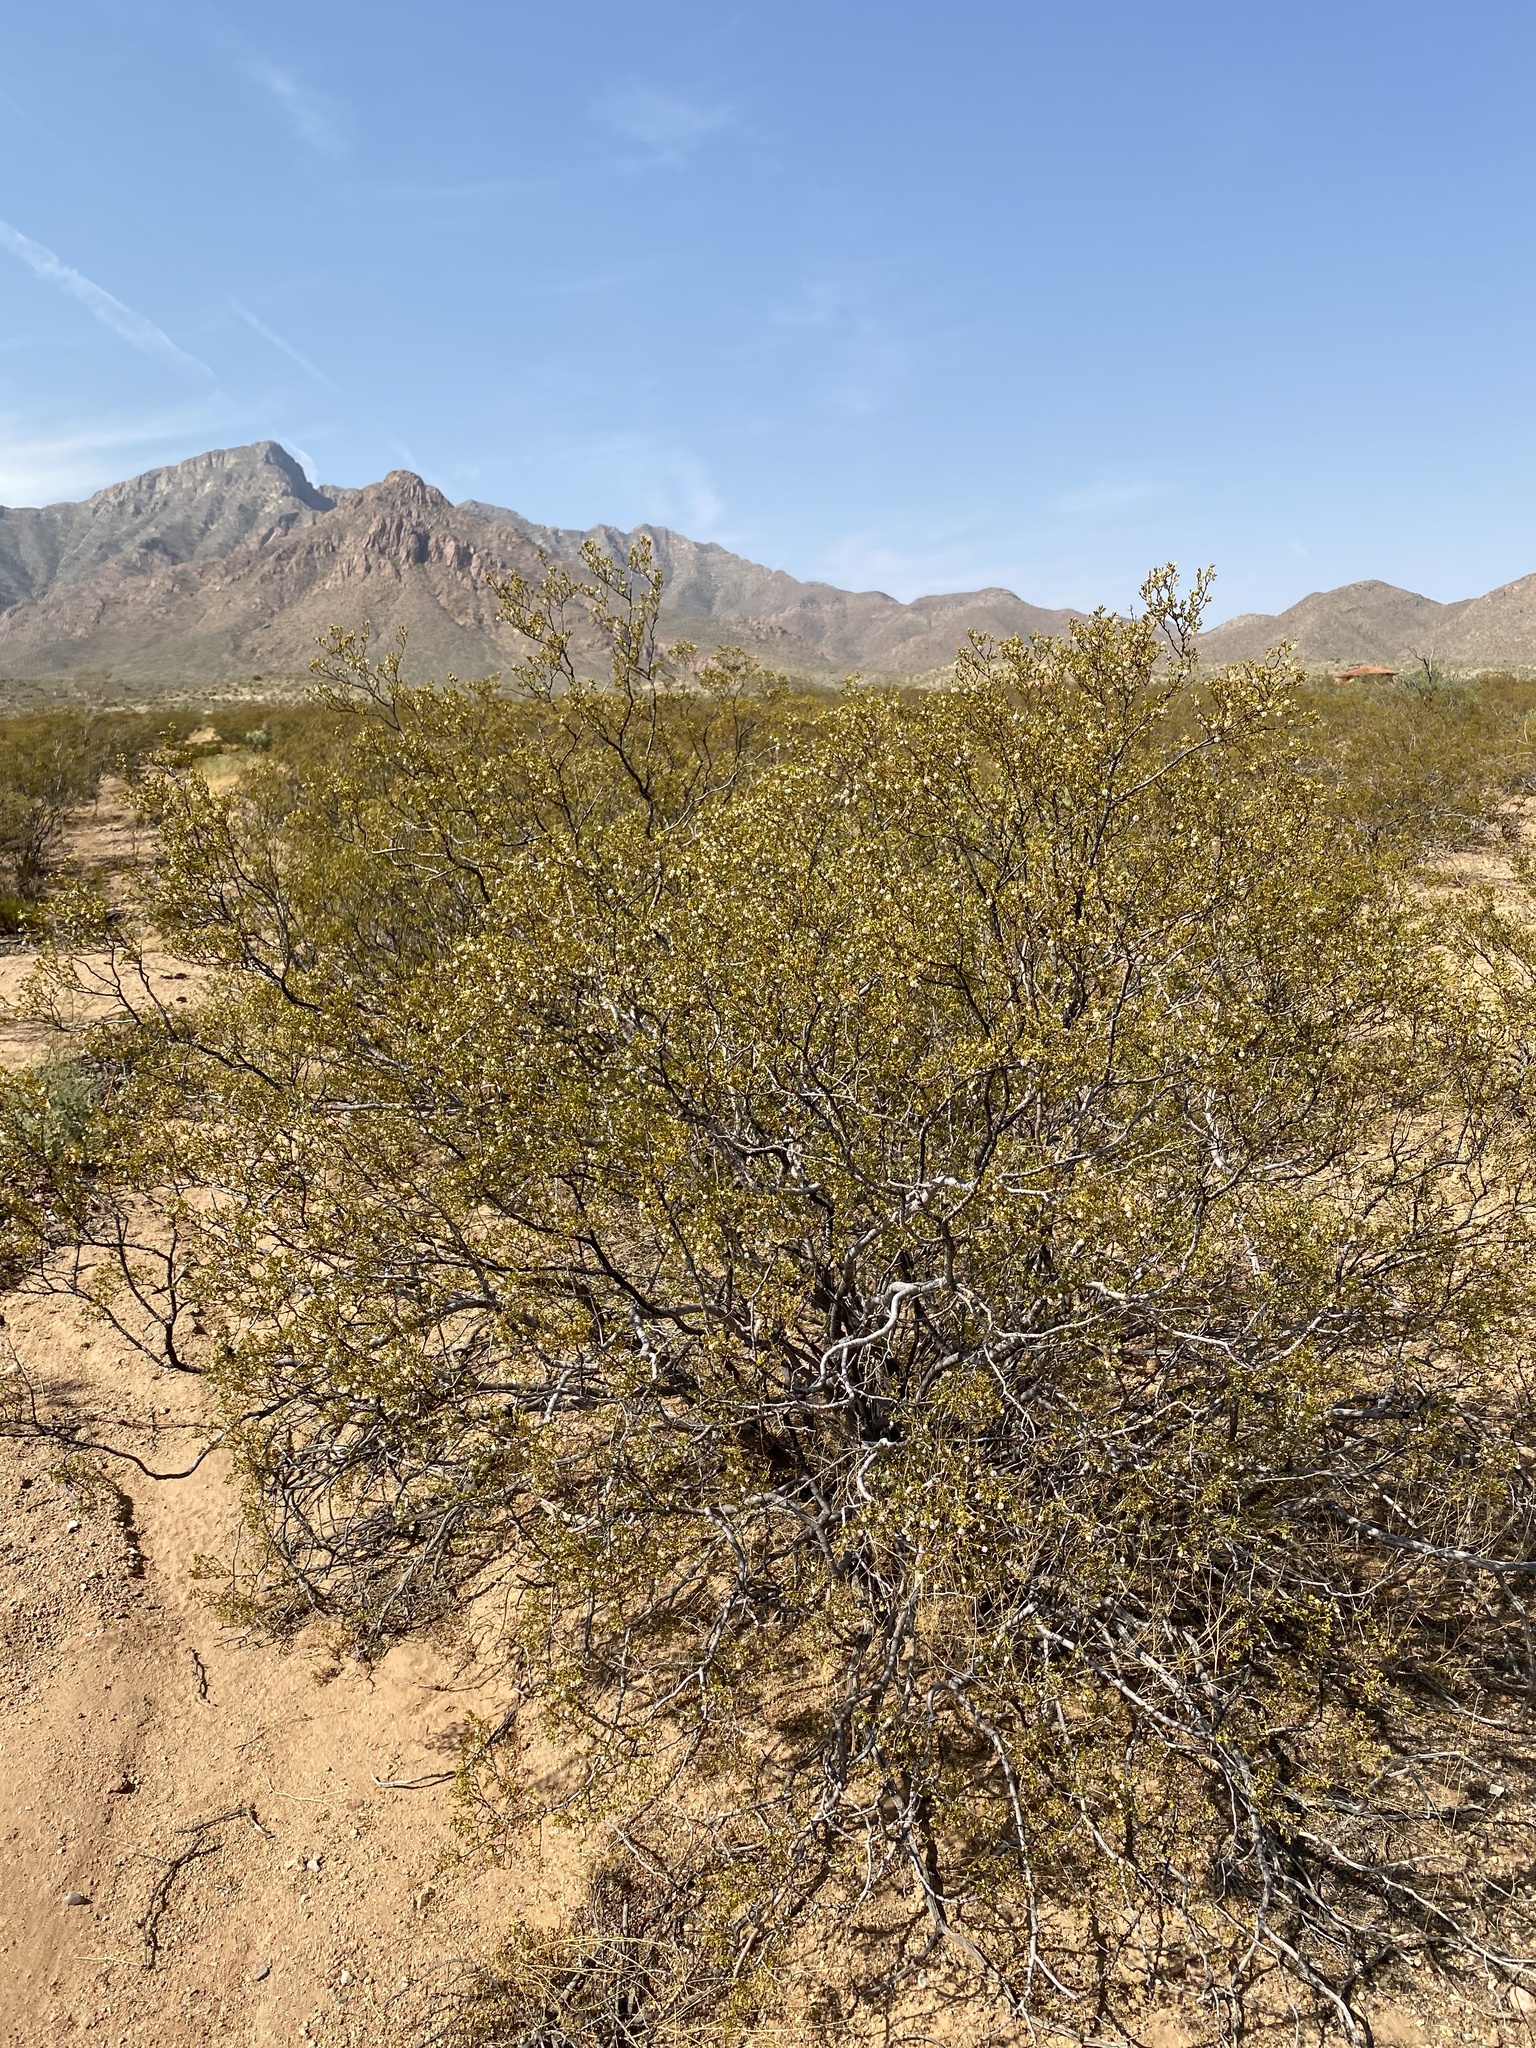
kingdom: Plantae
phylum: Tracheophyta
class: Magnoliopsida
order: Zygophyllales
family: Zygophyllaceae
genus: Larrea
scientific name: Larrea tridentata
